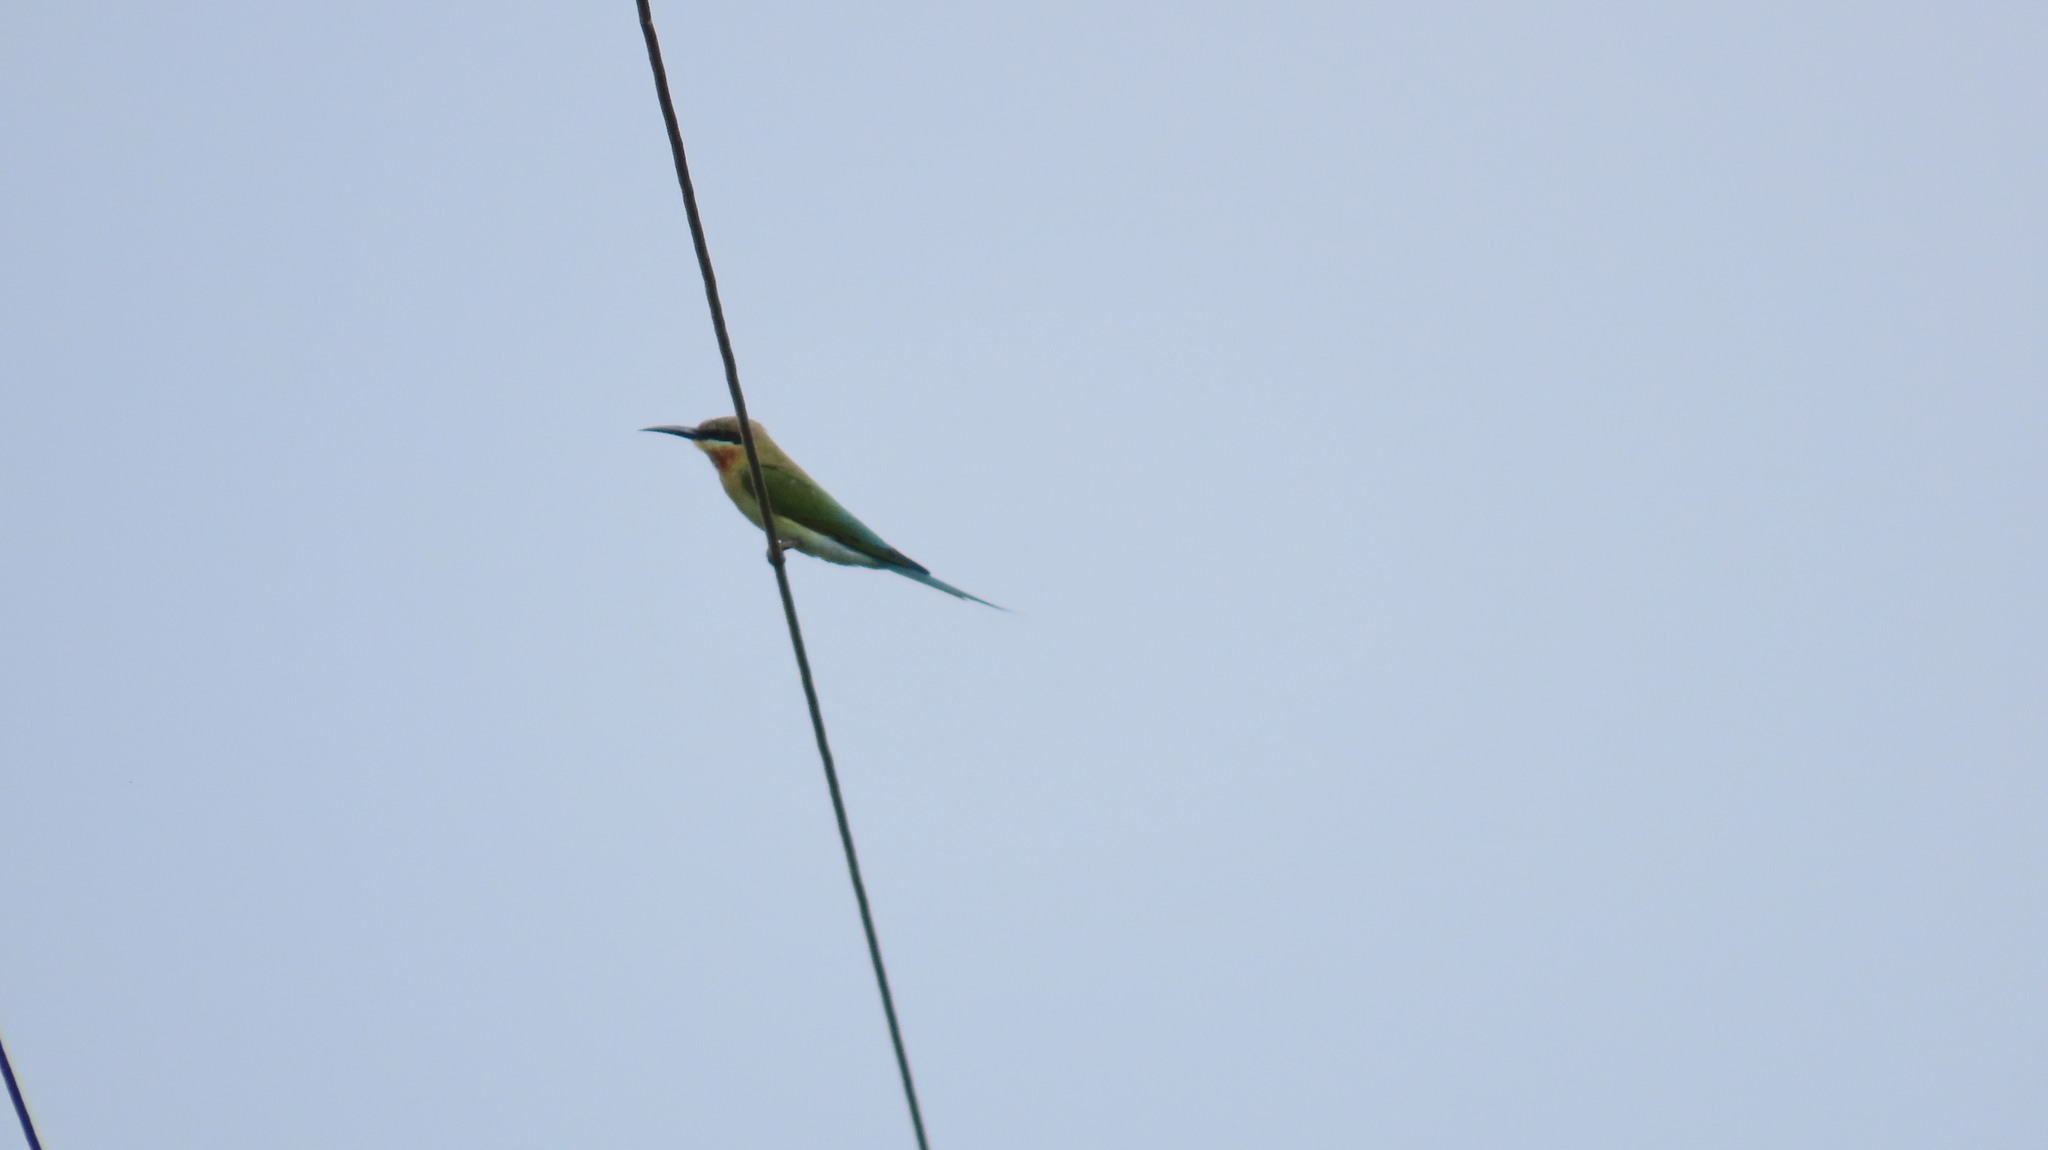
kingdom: Animalia
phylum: Chordata
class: Aves
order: Coraciiformes
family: Meropidae
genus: Merops
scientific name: Merops philippinus
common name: Blue-tailed bee-eater
